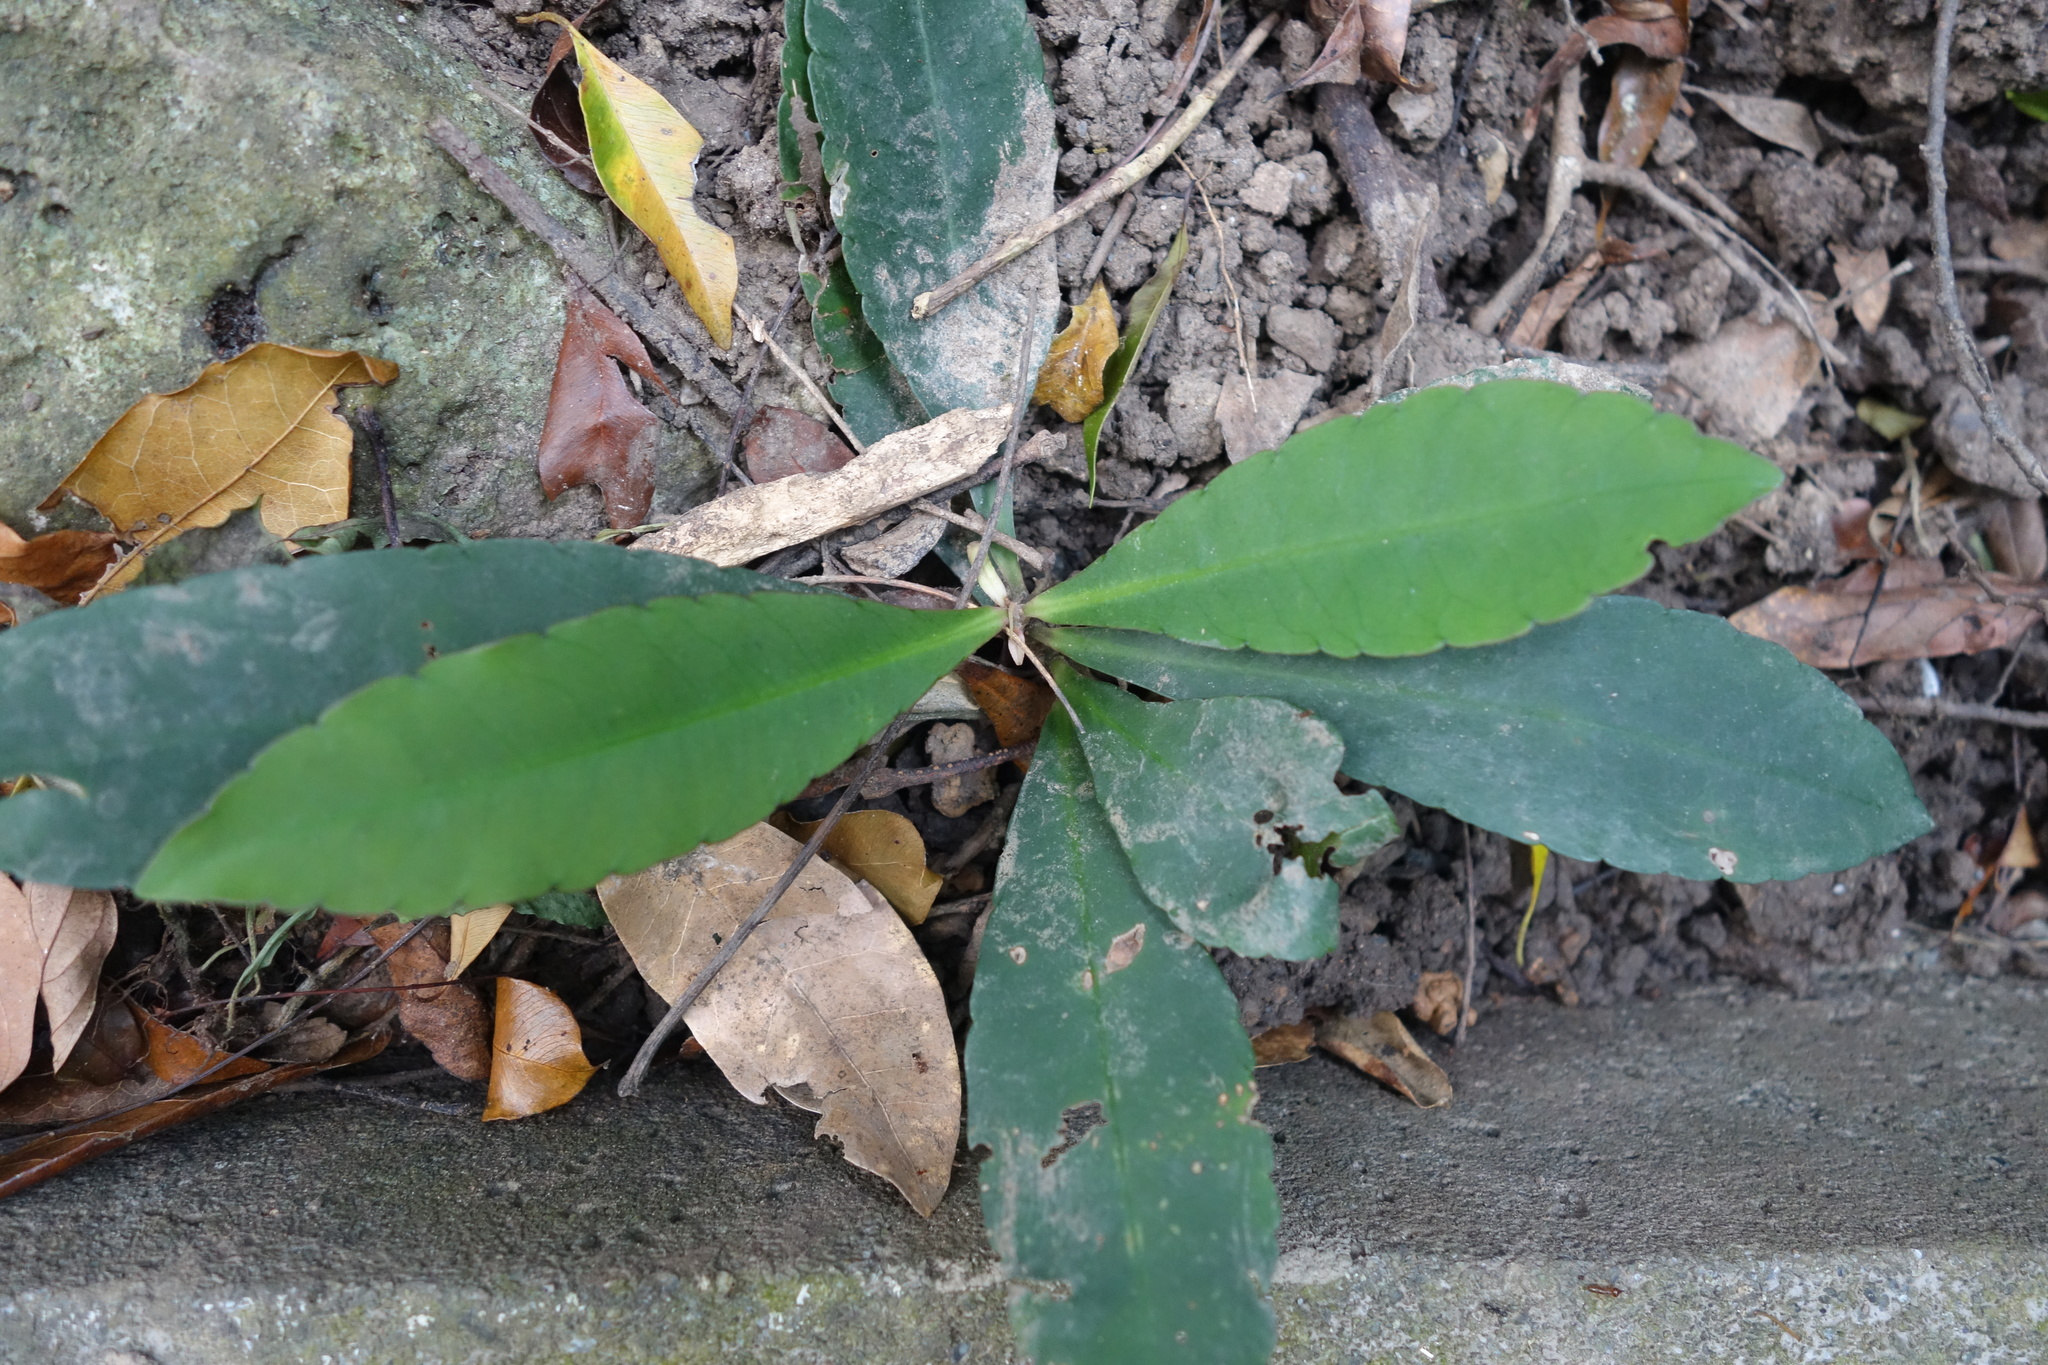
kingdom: Plantae
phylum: Tracheophyta
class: Magnoliopsida
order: Ericales
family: Primulaceae
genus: Ardisia
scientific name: Ardisia sieboldii
